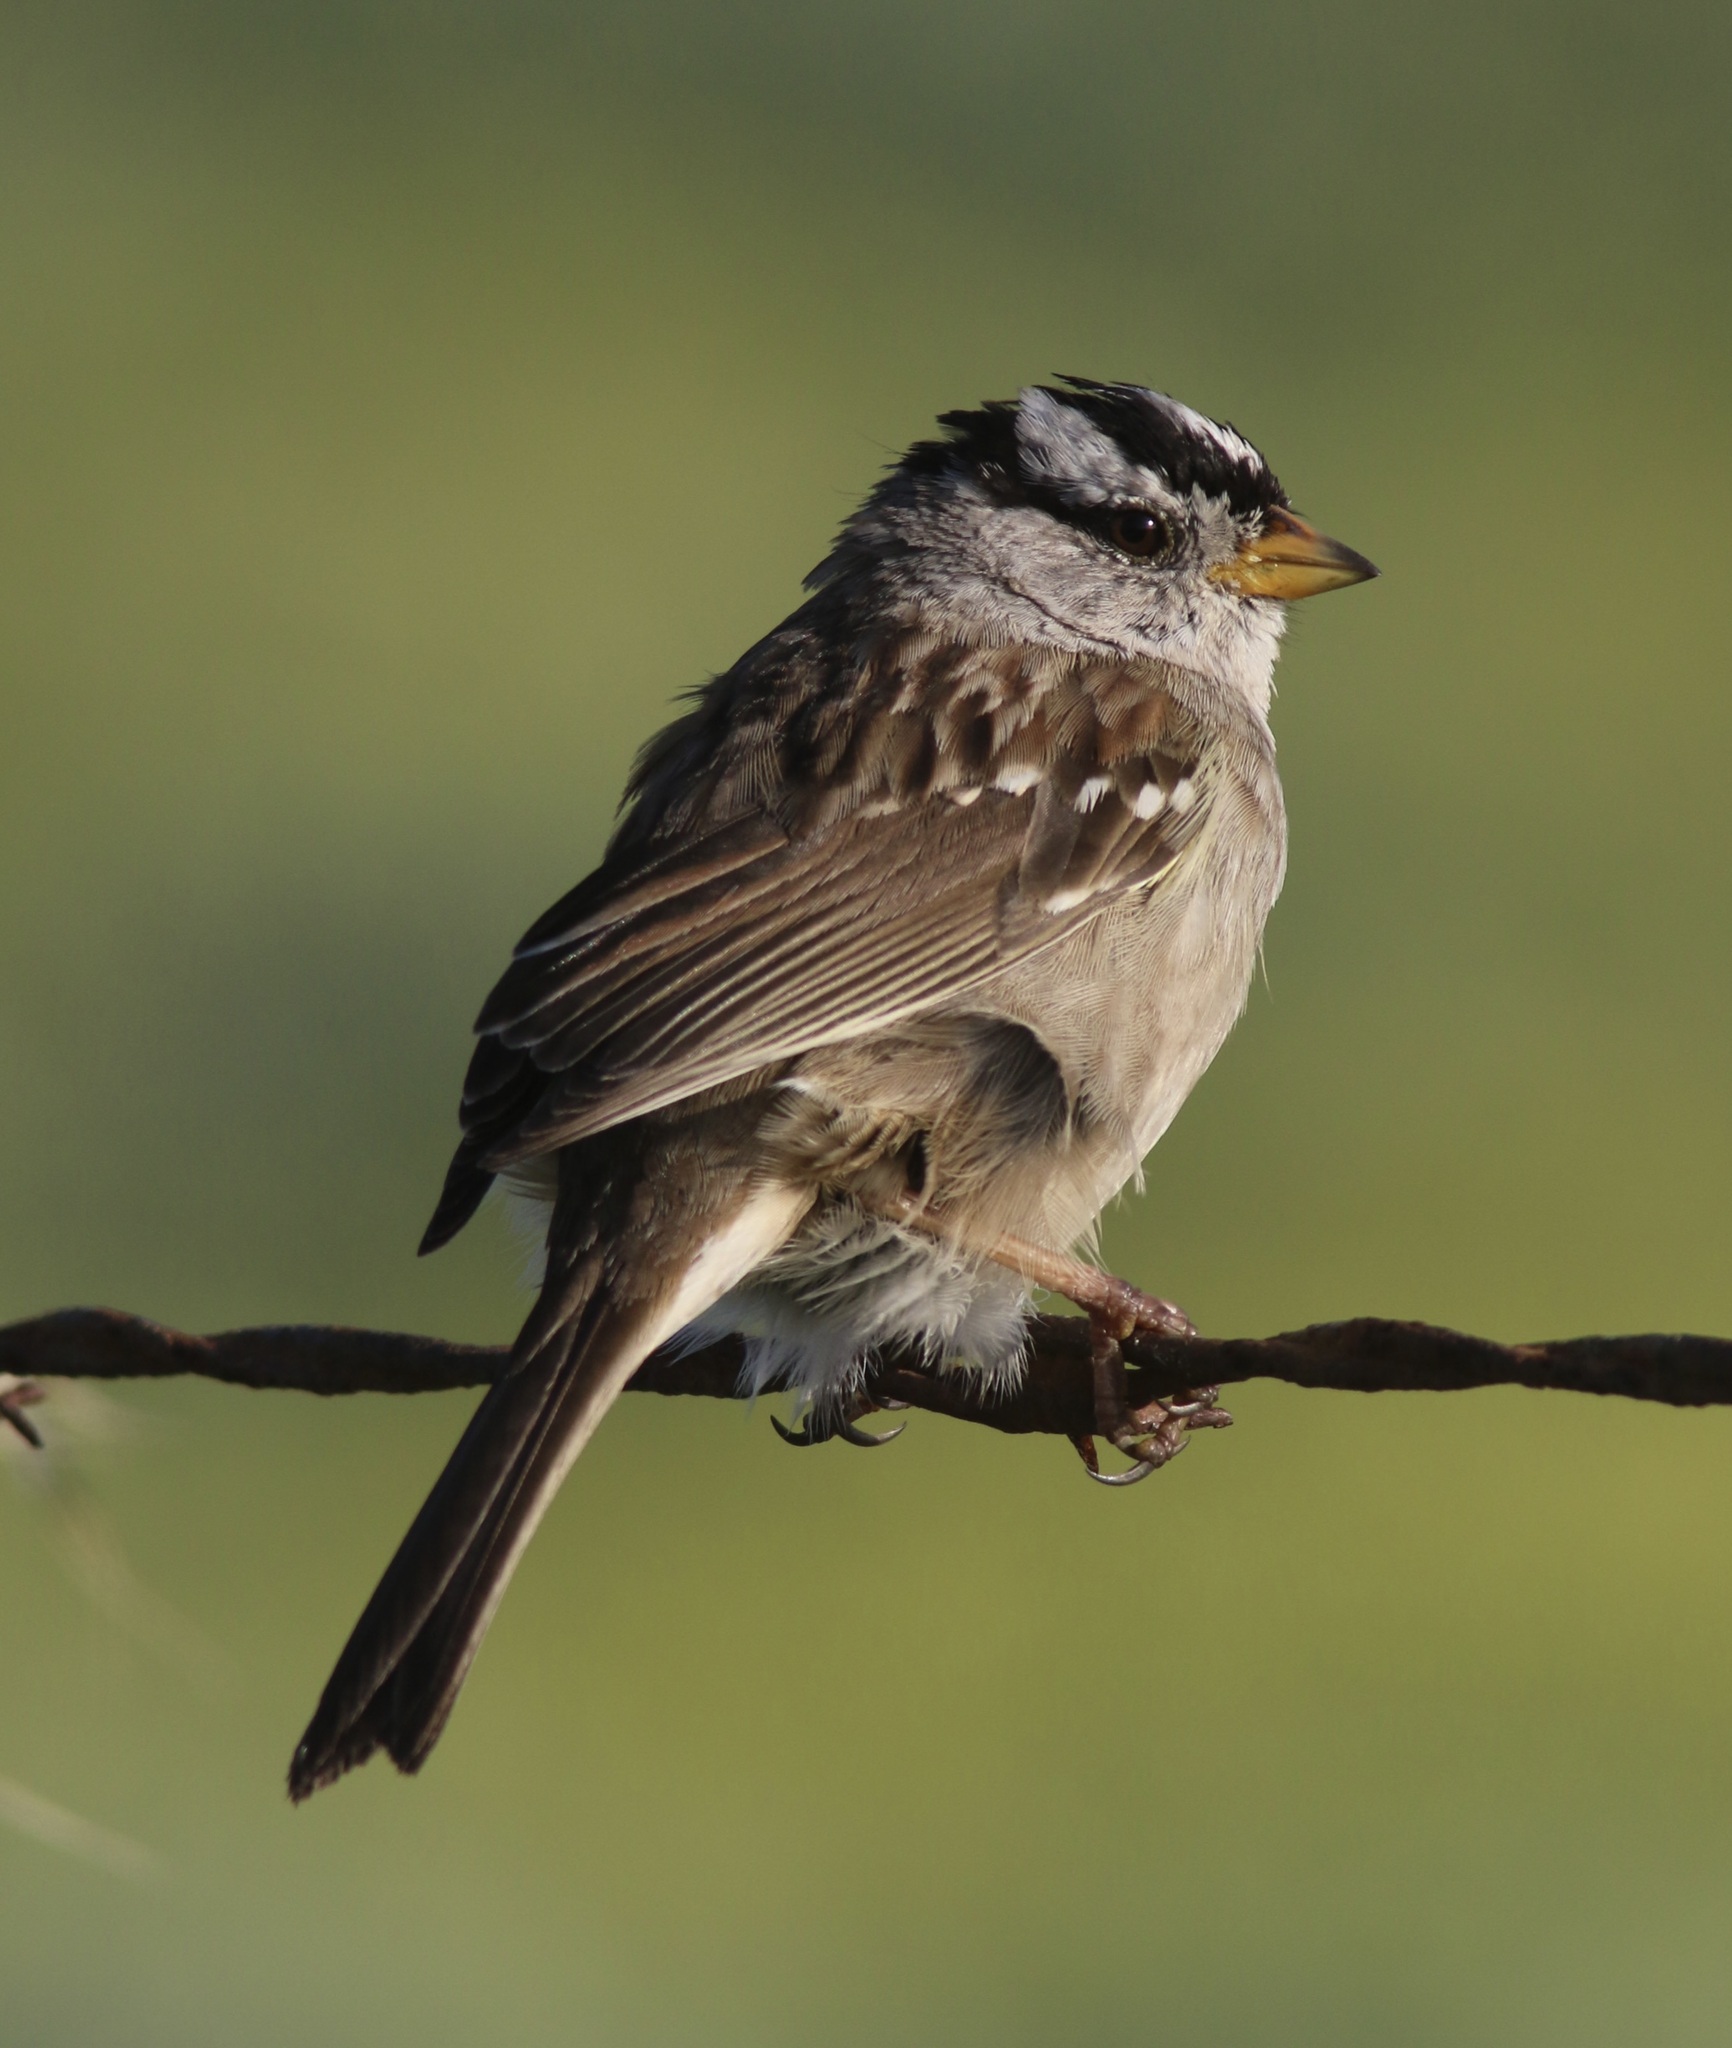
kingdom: Animalia
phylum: Chordata
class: Aves
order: Passeriformes
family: Passerellidae
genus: Zonotrichia
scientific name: Zonotrichia leucophrys
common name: White-crowned sparrow
